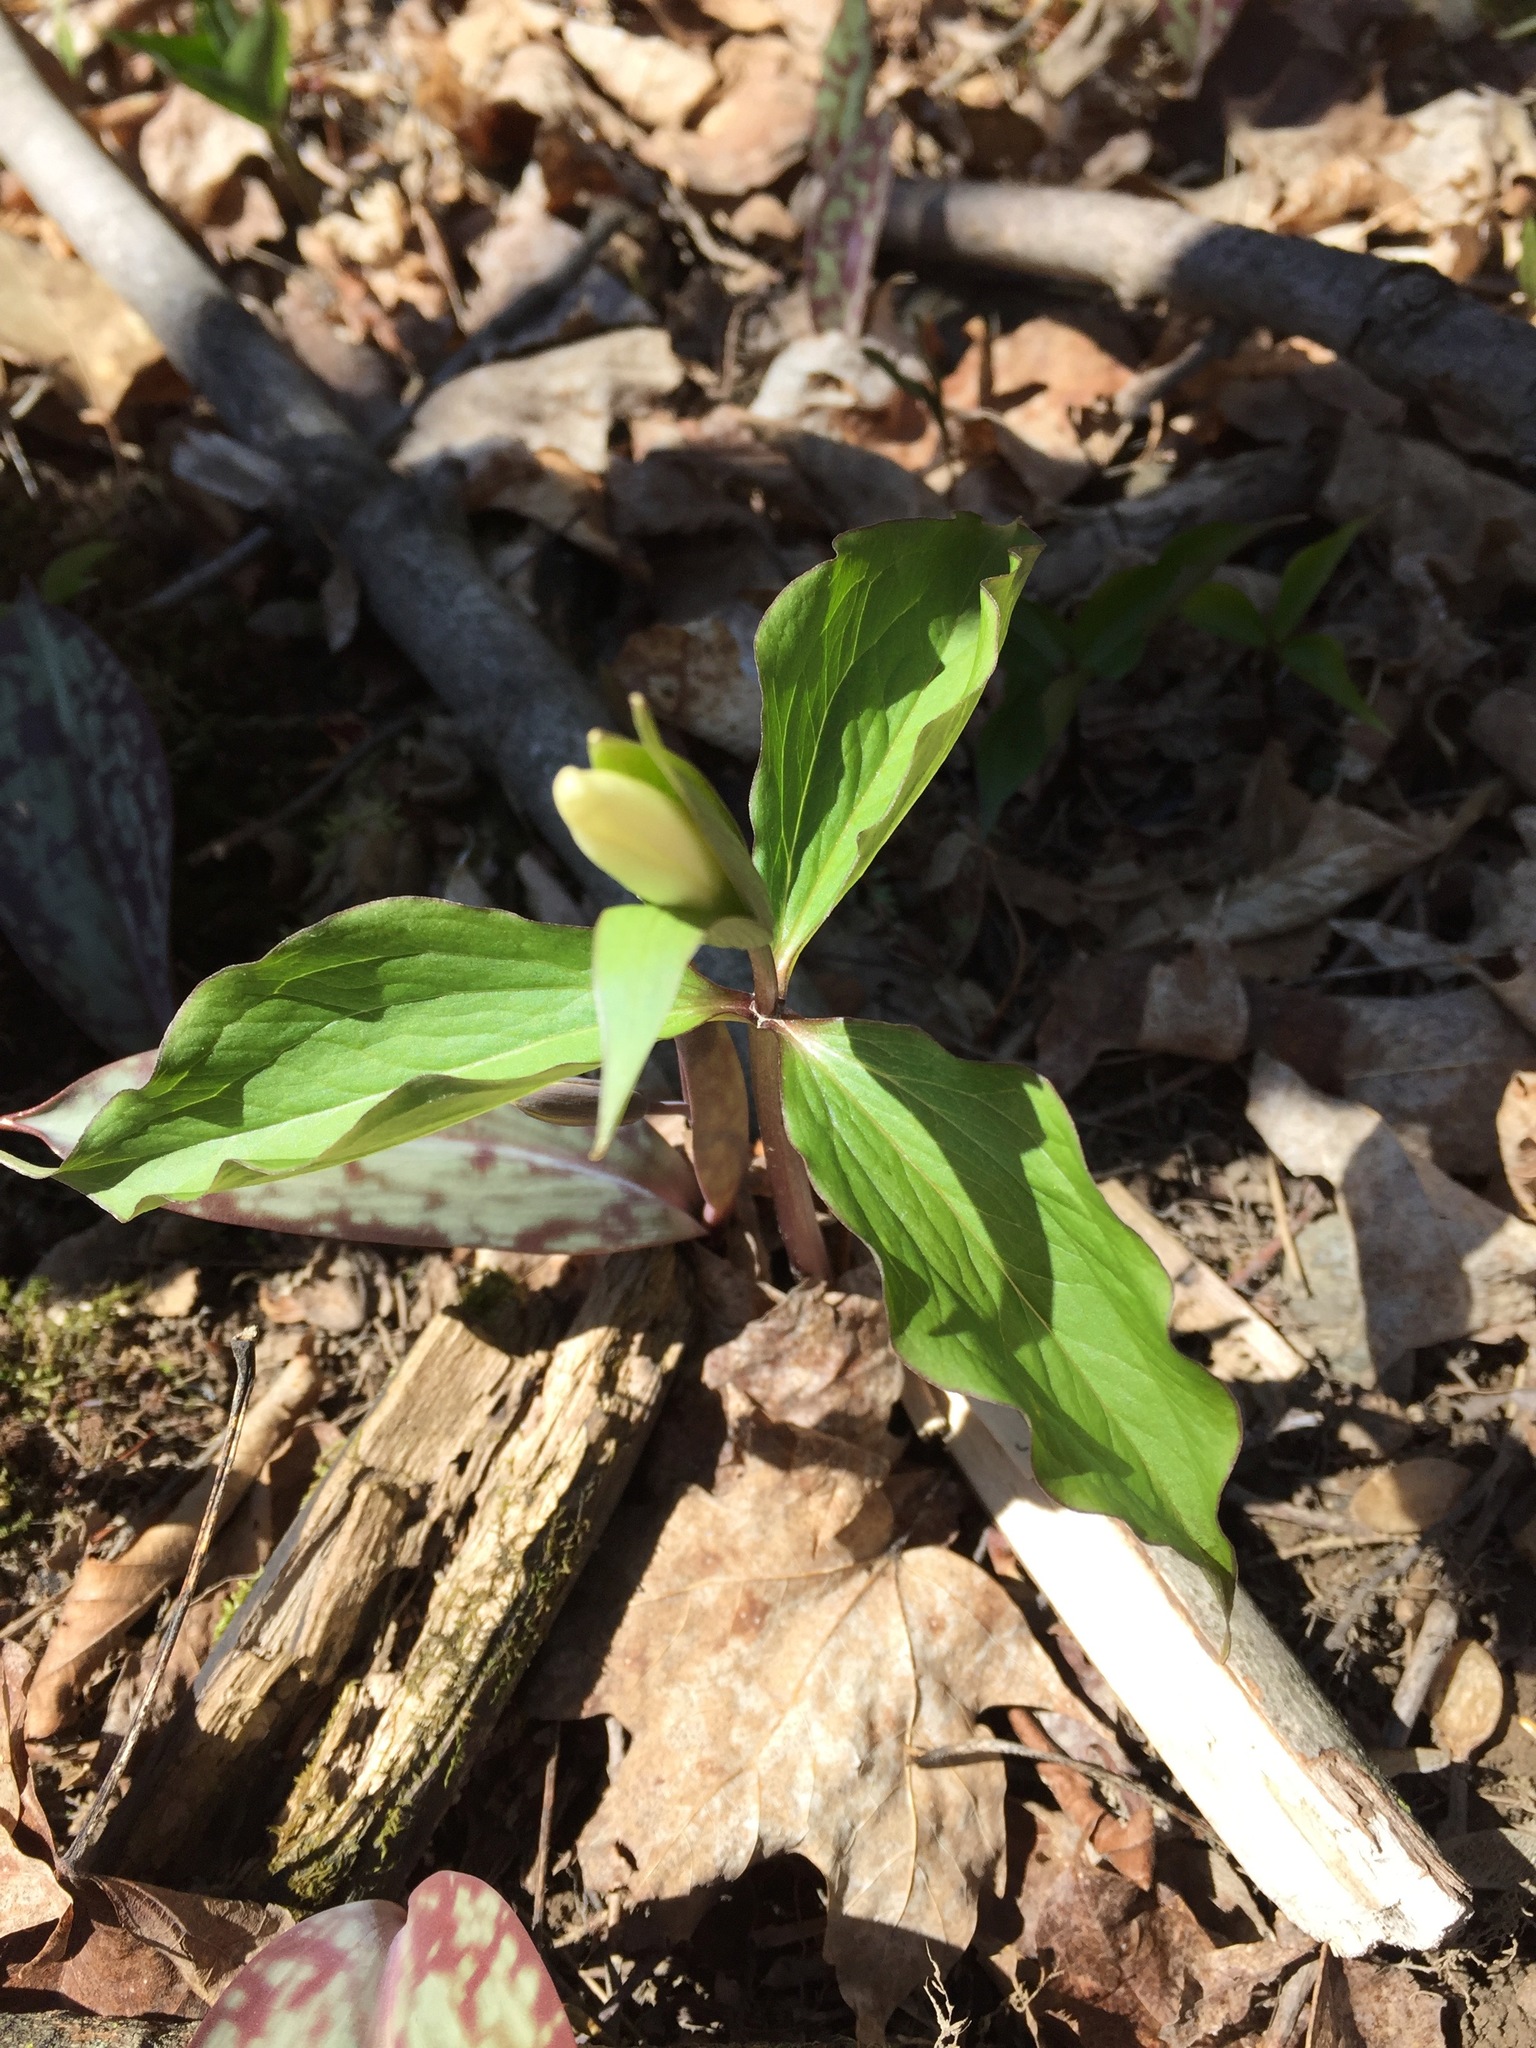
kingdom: Plantae
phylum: Tracheophyta
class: Liliopsida
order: Liliales
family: Melanthiaceae
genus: Trillium
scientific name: Trillium grandiflorum
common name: Great white trillium
